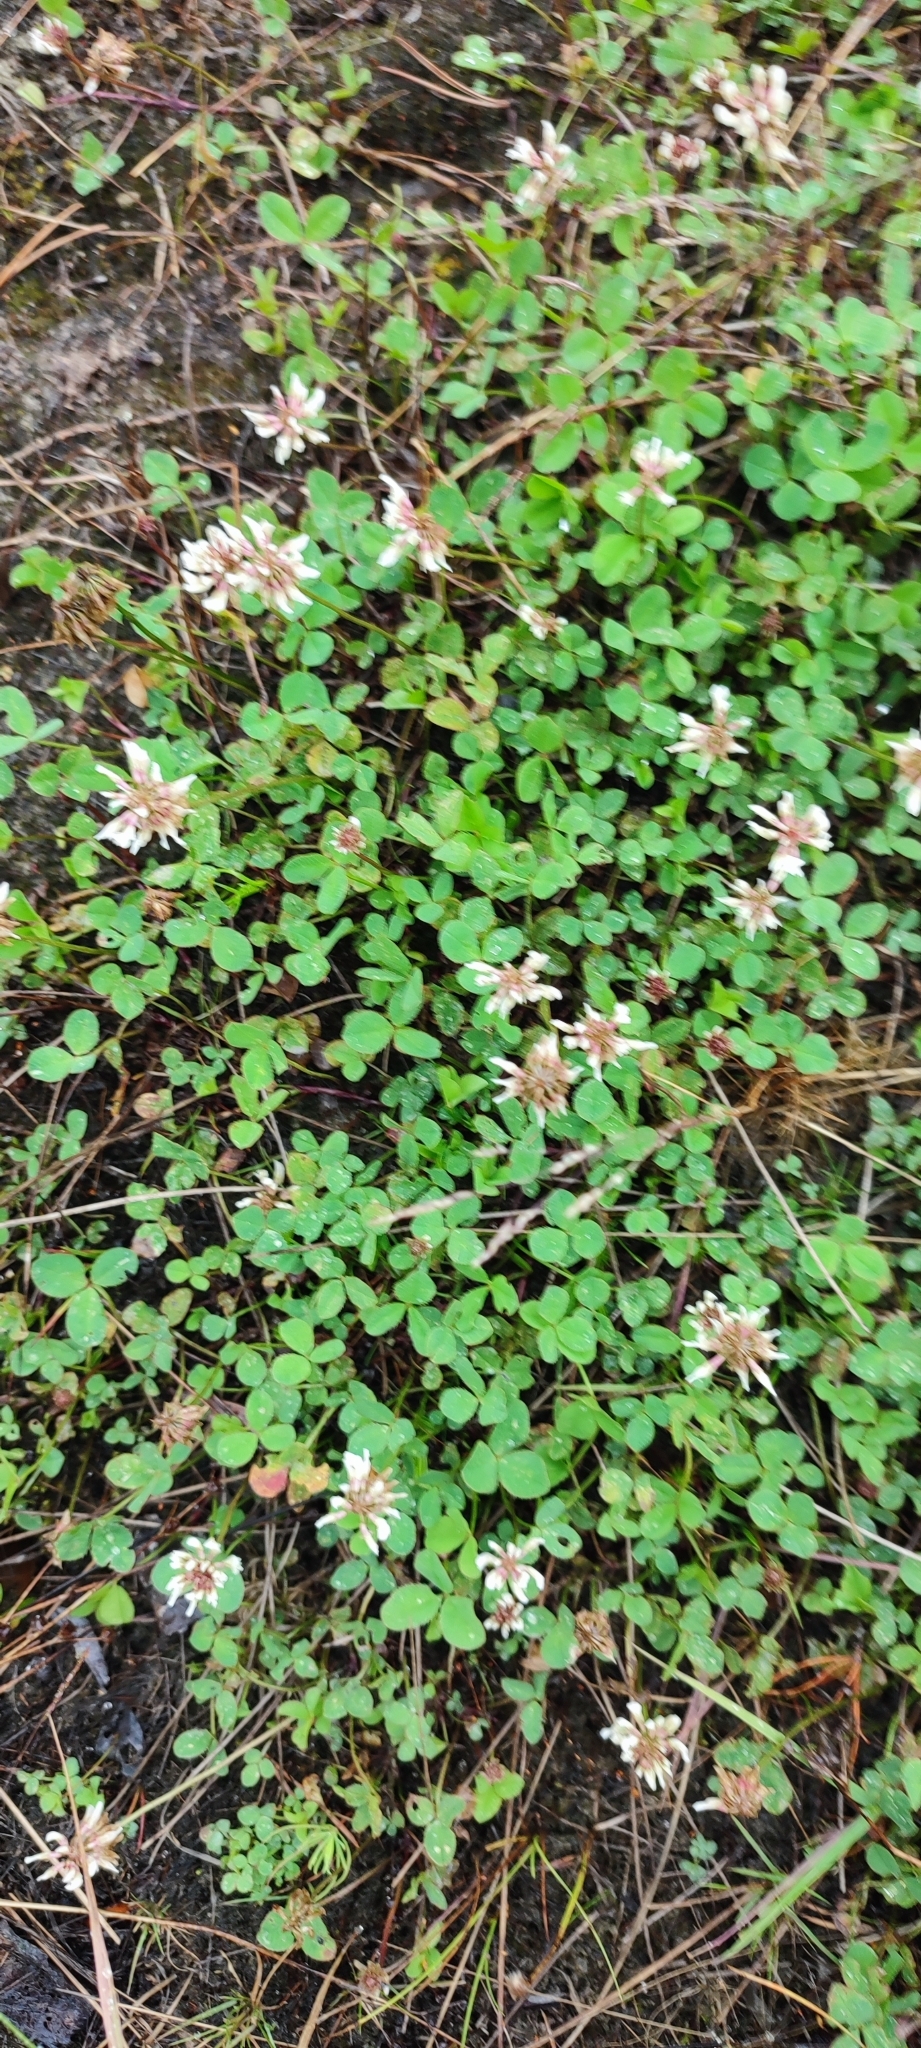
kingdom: Plantae
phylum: Tracheophyta
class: Magnoliopsida
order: Fabales
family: Fabaceae
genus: Trifolium
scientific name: Trifolium repens
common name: White clover
